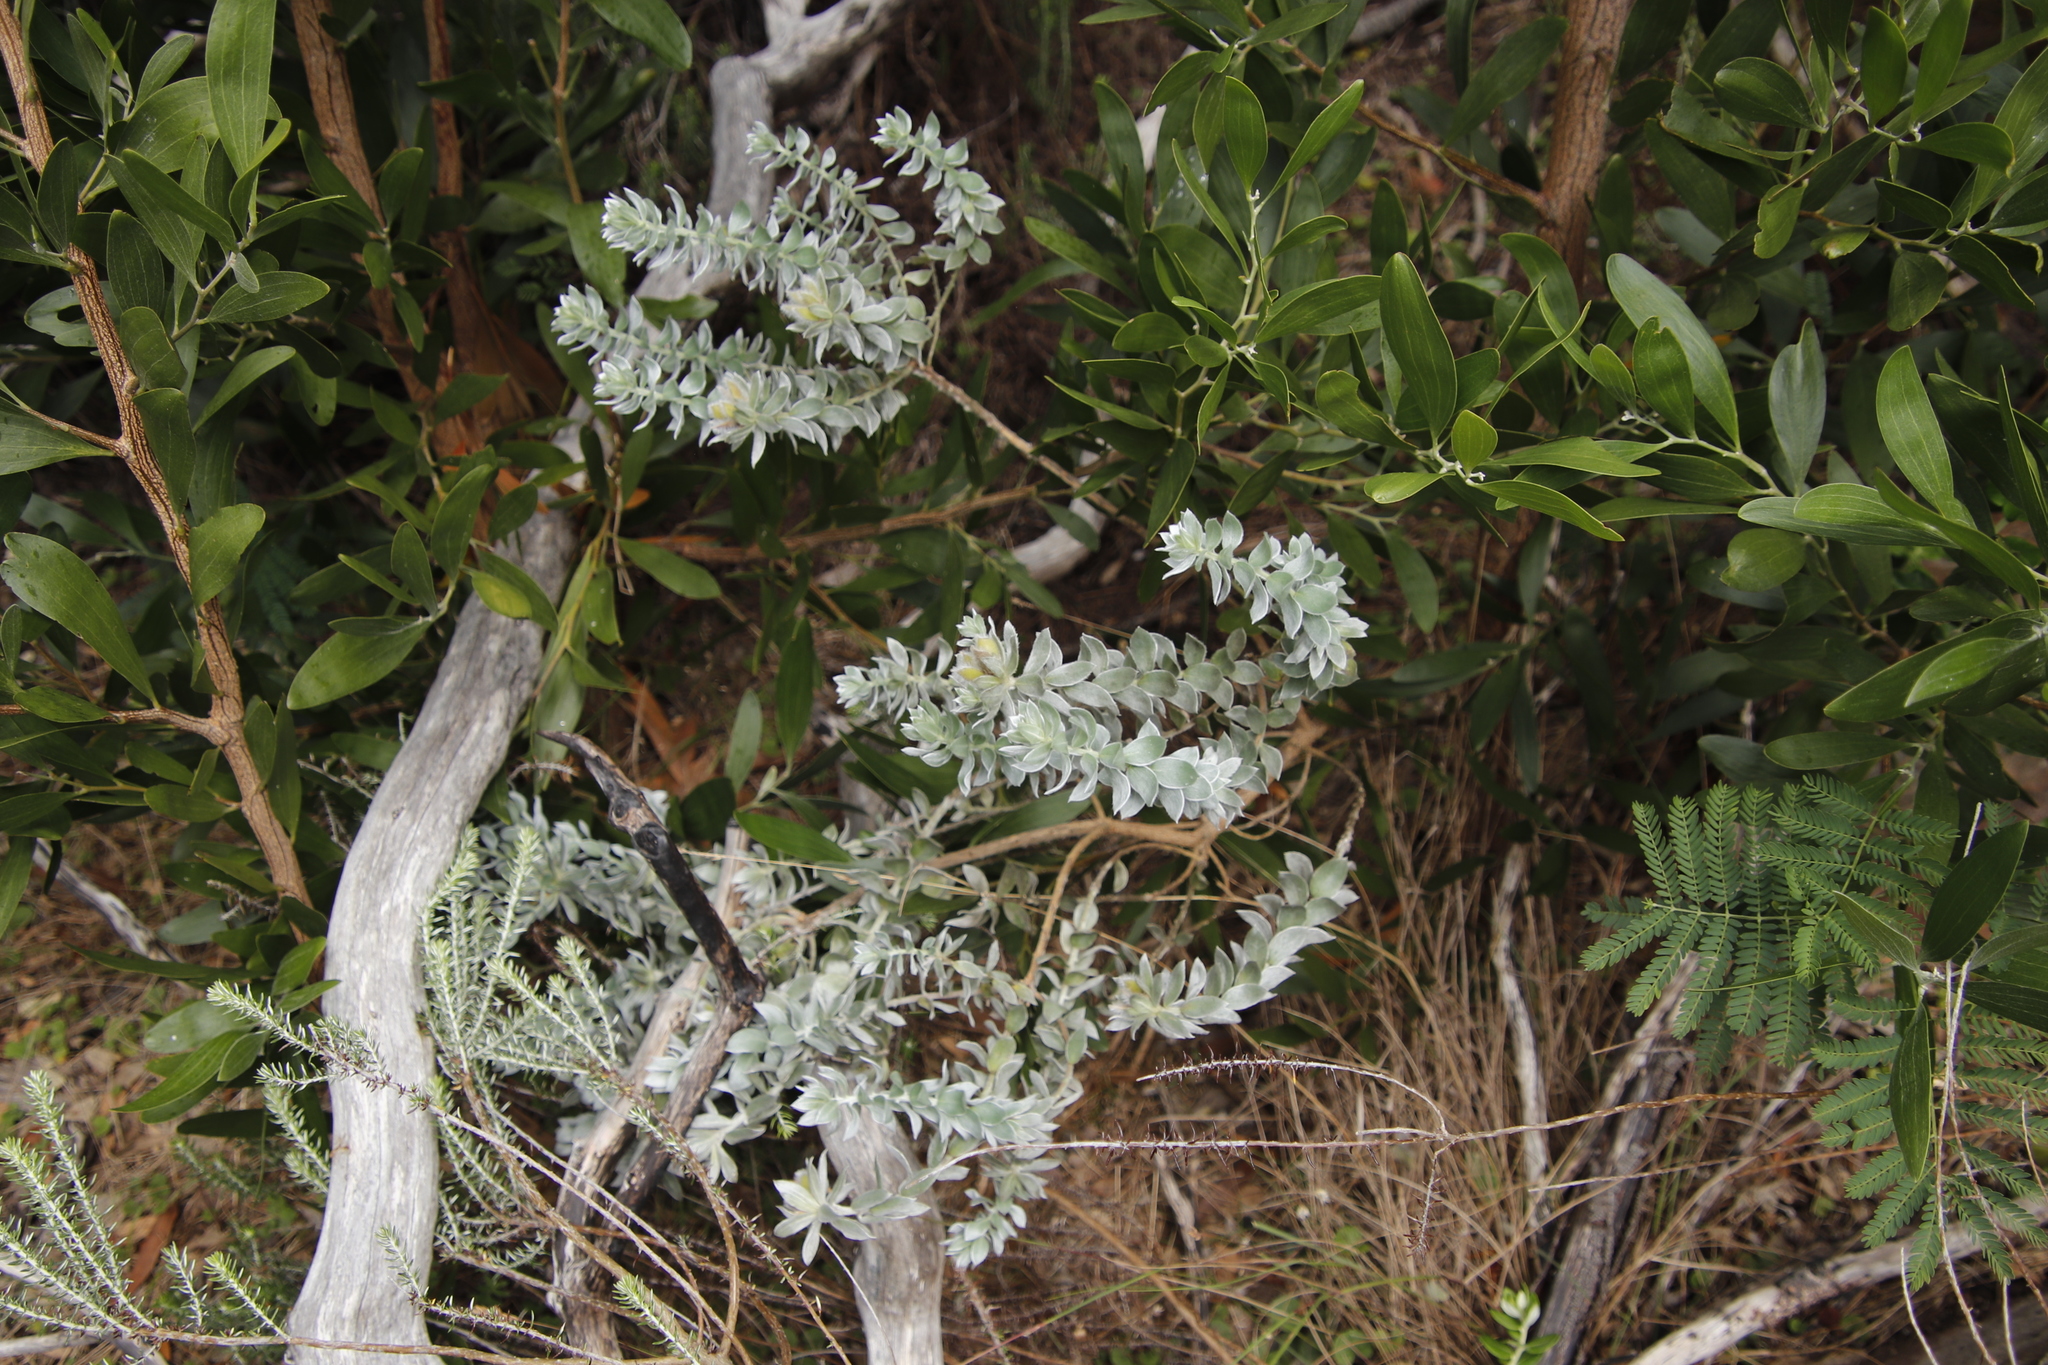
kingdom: Plantae
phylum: Tracheophyta
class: Magnoliopsida
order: Fabales
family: Fabaceae
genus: Xiphotheca
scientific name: Xiphotheca fruticosa
